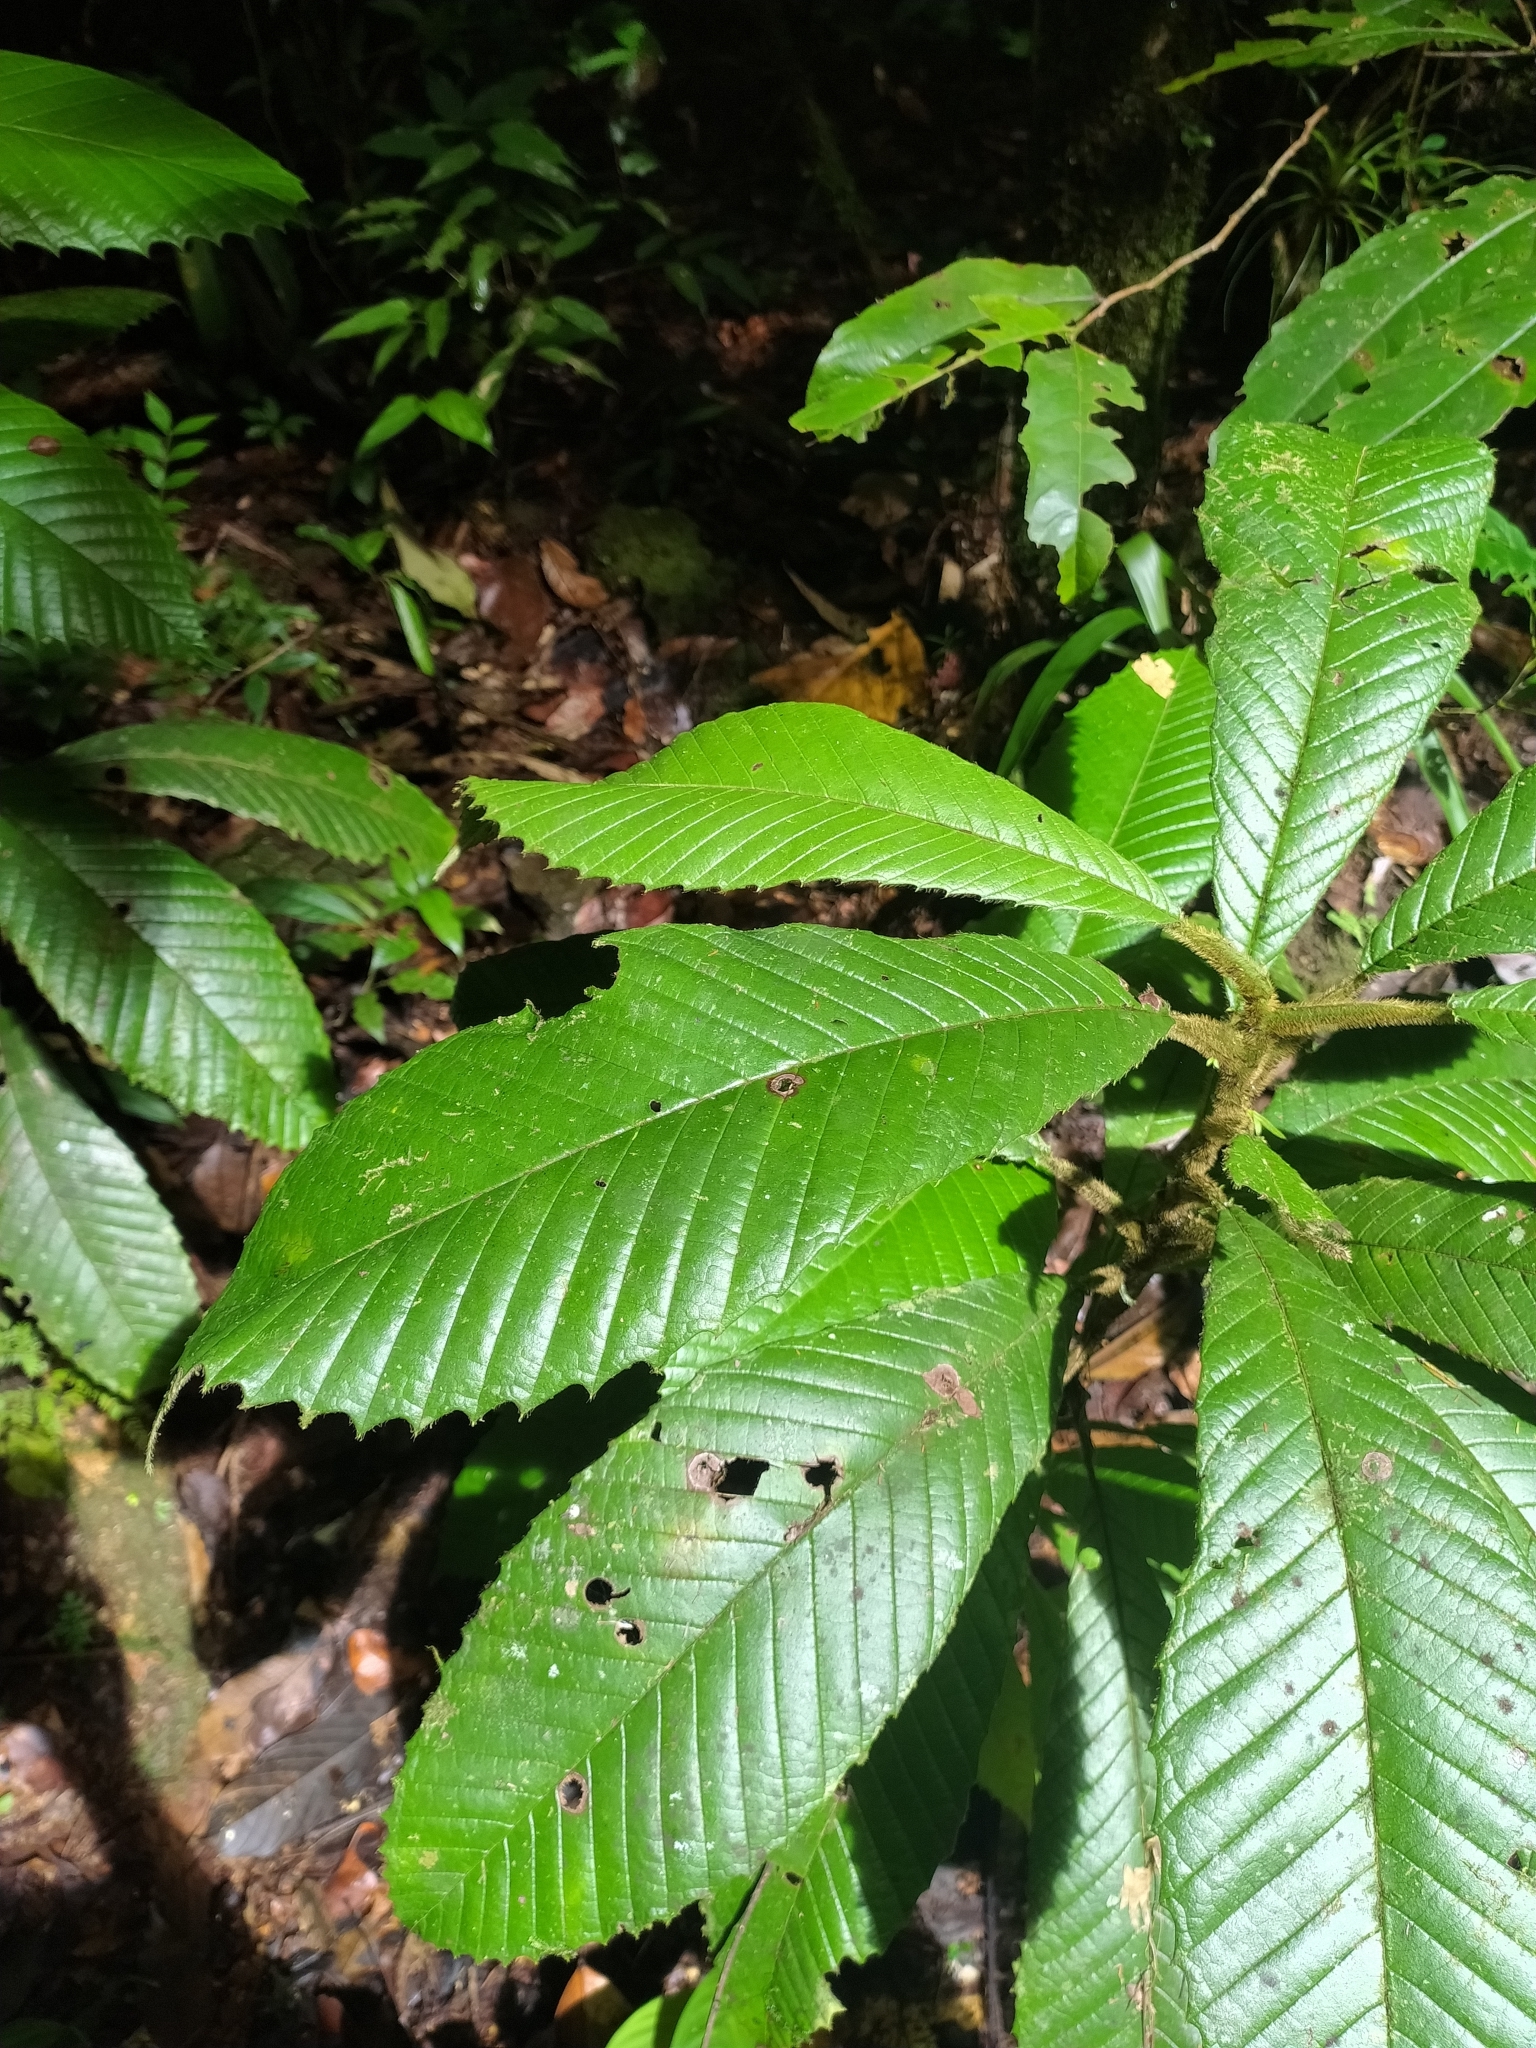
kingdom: Plantae
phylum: Tracheophyta
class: Magnoliopsida
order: Dilleniales
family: Dilleniaceae
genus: Davilla
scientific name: Davilla alata
